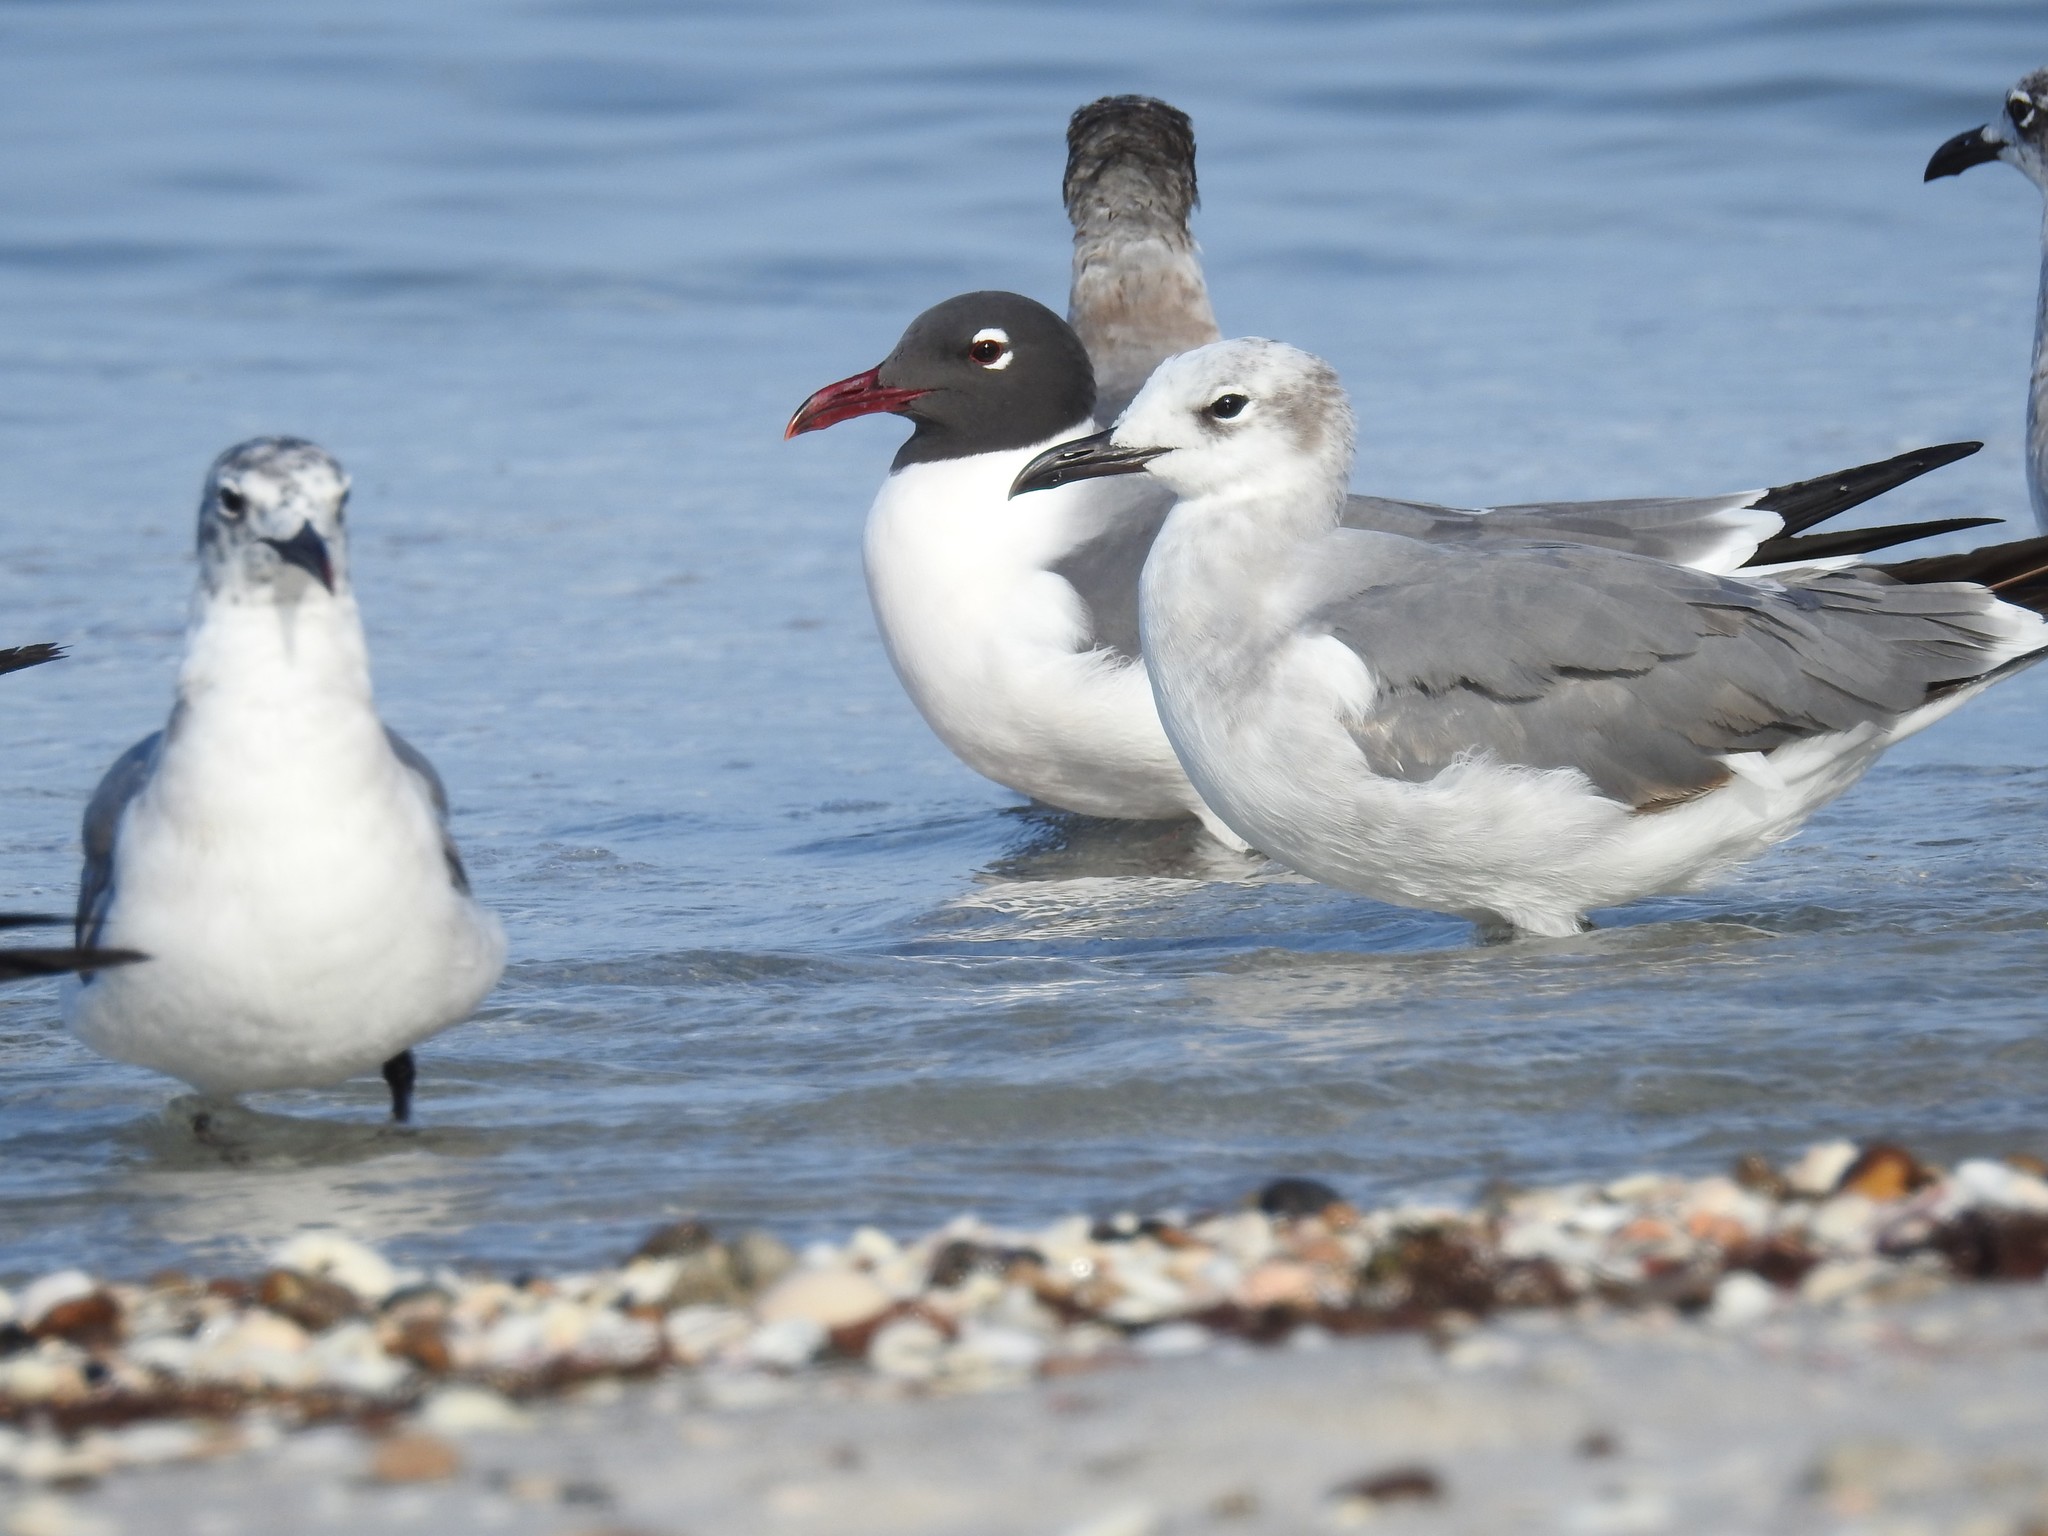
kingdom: Animalia
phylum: Chordata
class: Aves
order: Charadriiformes
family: Laridae
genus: Leucophaeus
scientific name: Leucophaeus atricilla
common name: Laughing gull
